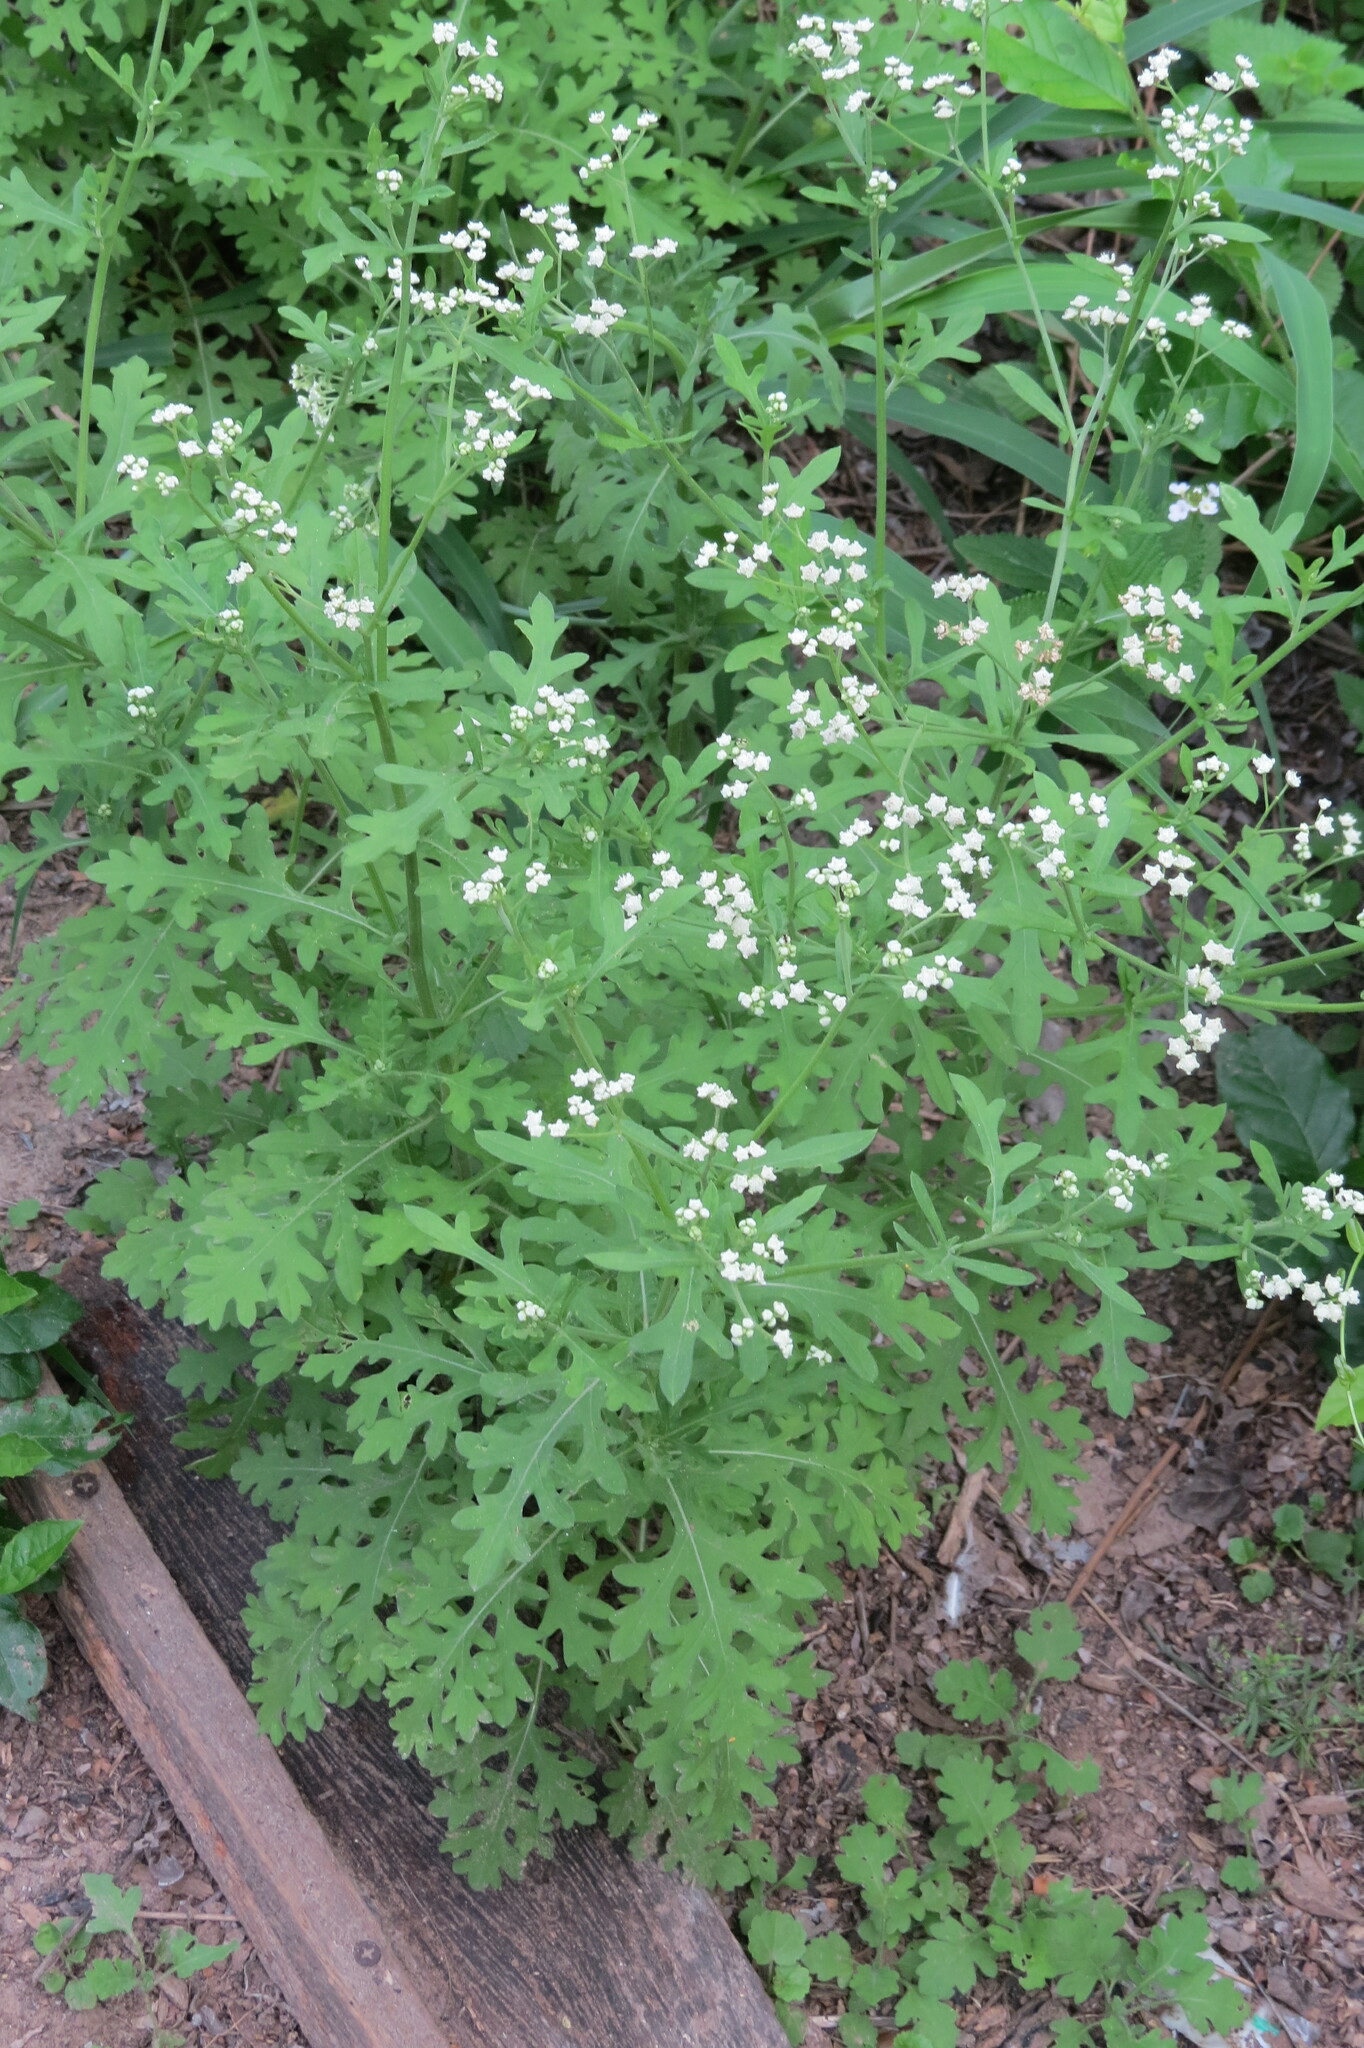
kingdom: Plantae
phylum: Tracheophyta
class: Magnoliopsida
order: Asterales
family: Asteraceae
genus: Parthenium
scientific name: Parthenium hysterophorus
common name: Santa maria feverfew
